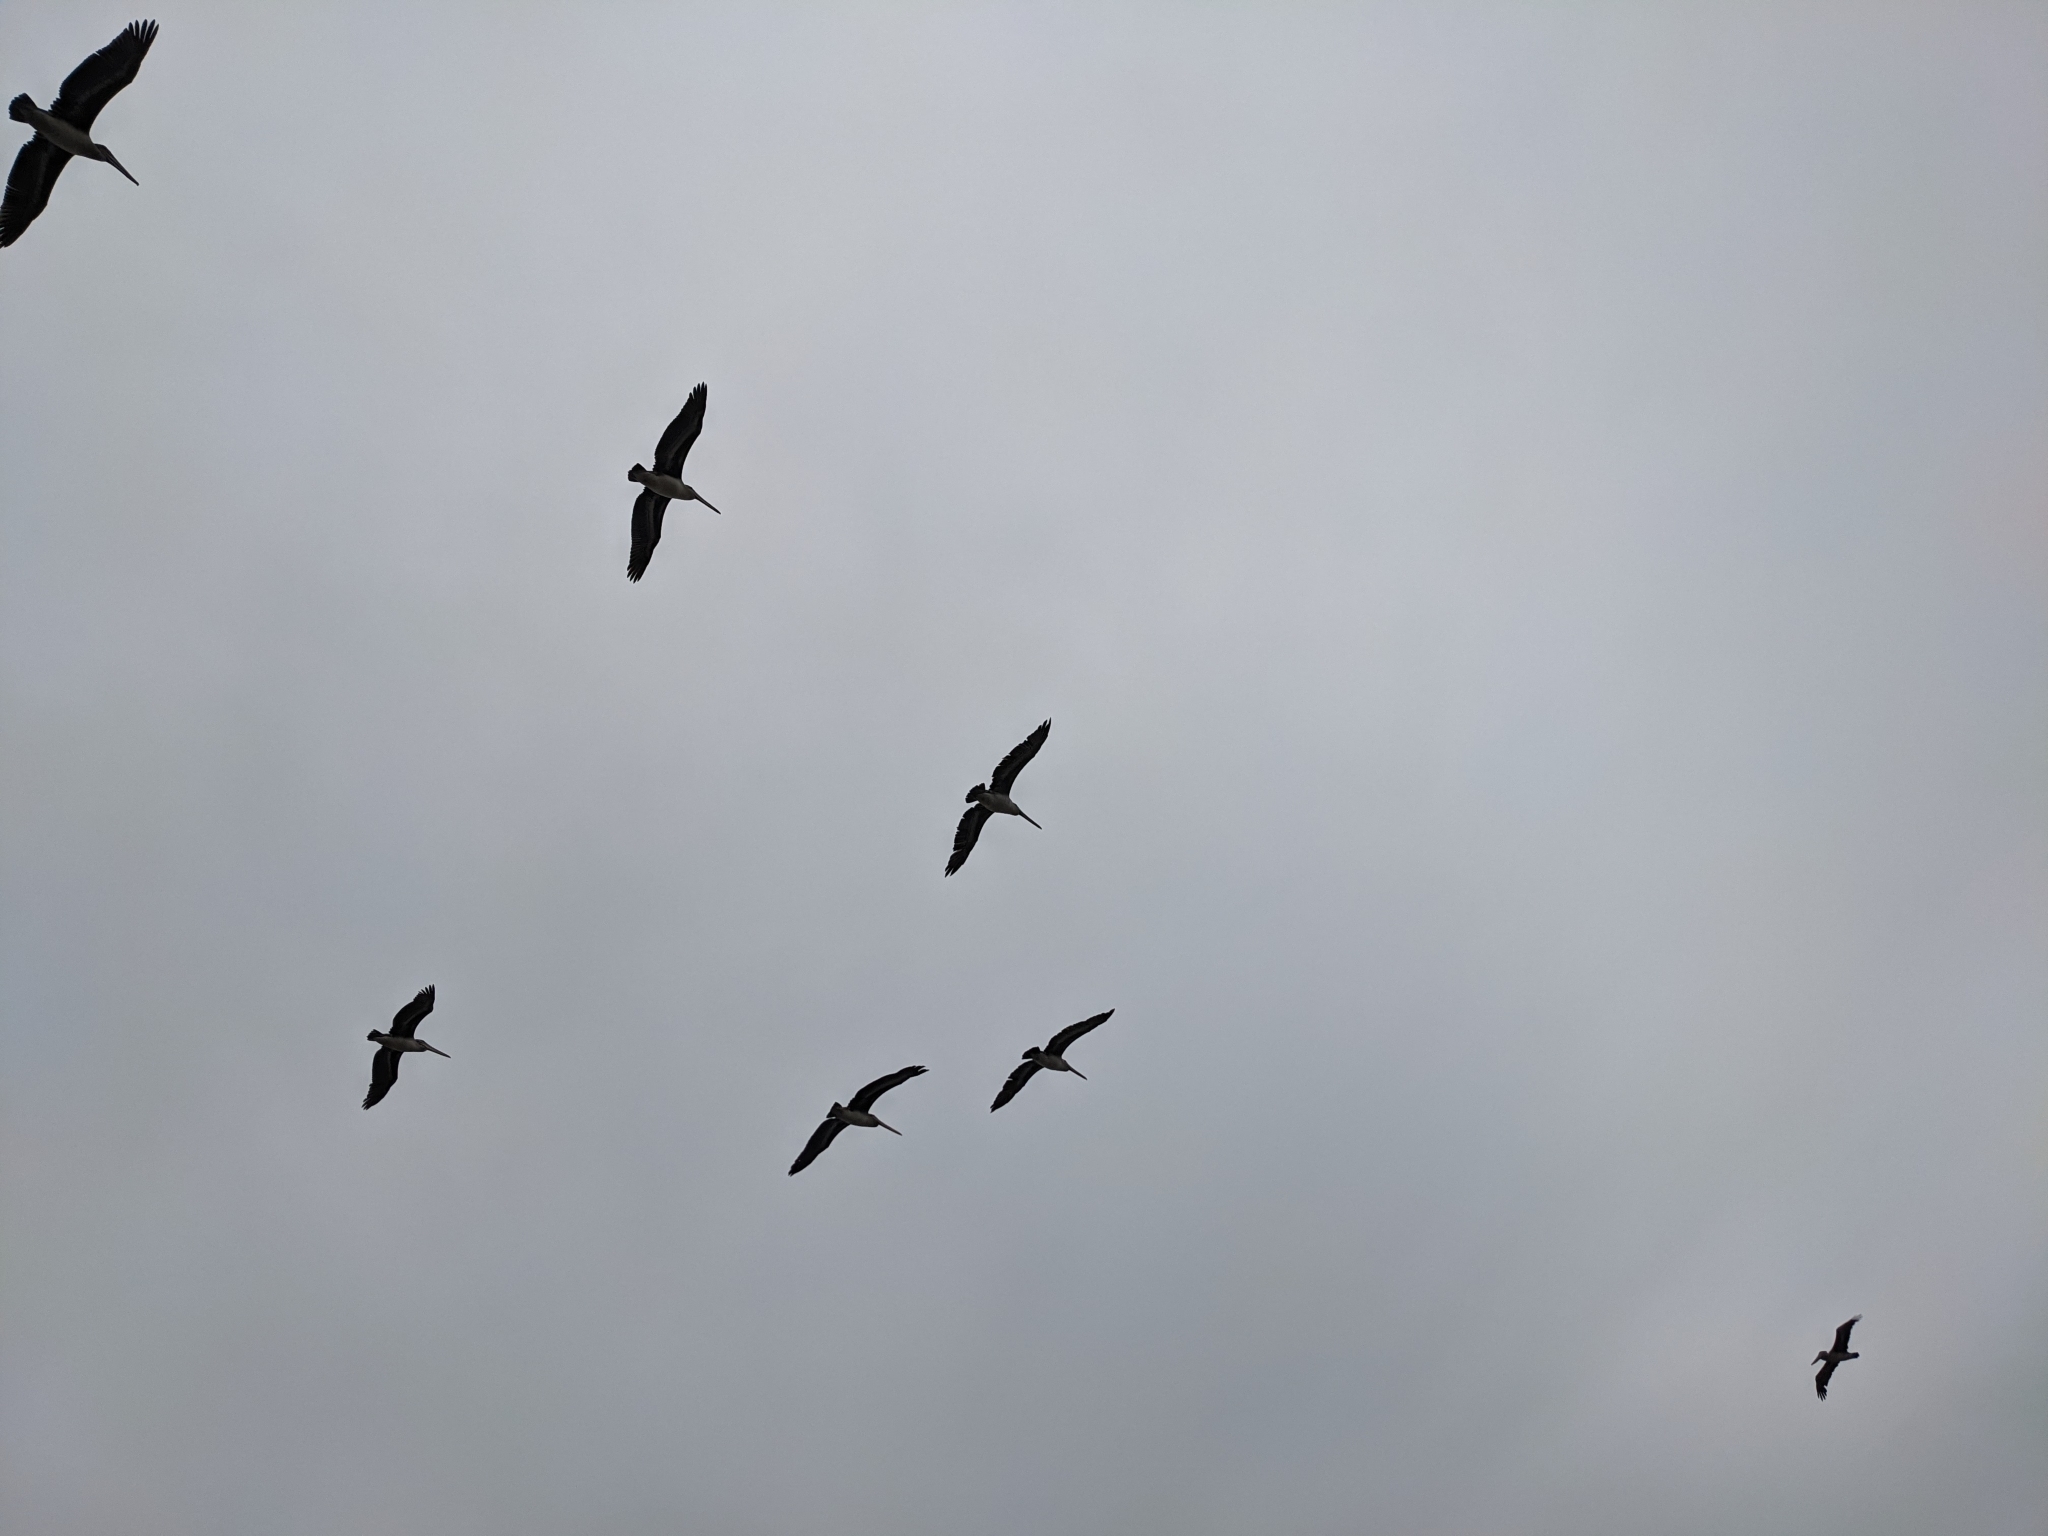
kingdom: Animalia
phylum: Chordata
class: Aves
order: Pelecaniformes
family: Pelecanidae
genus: Pelecanus
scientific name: Pelecanus occidentalis
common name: Brown pelican
